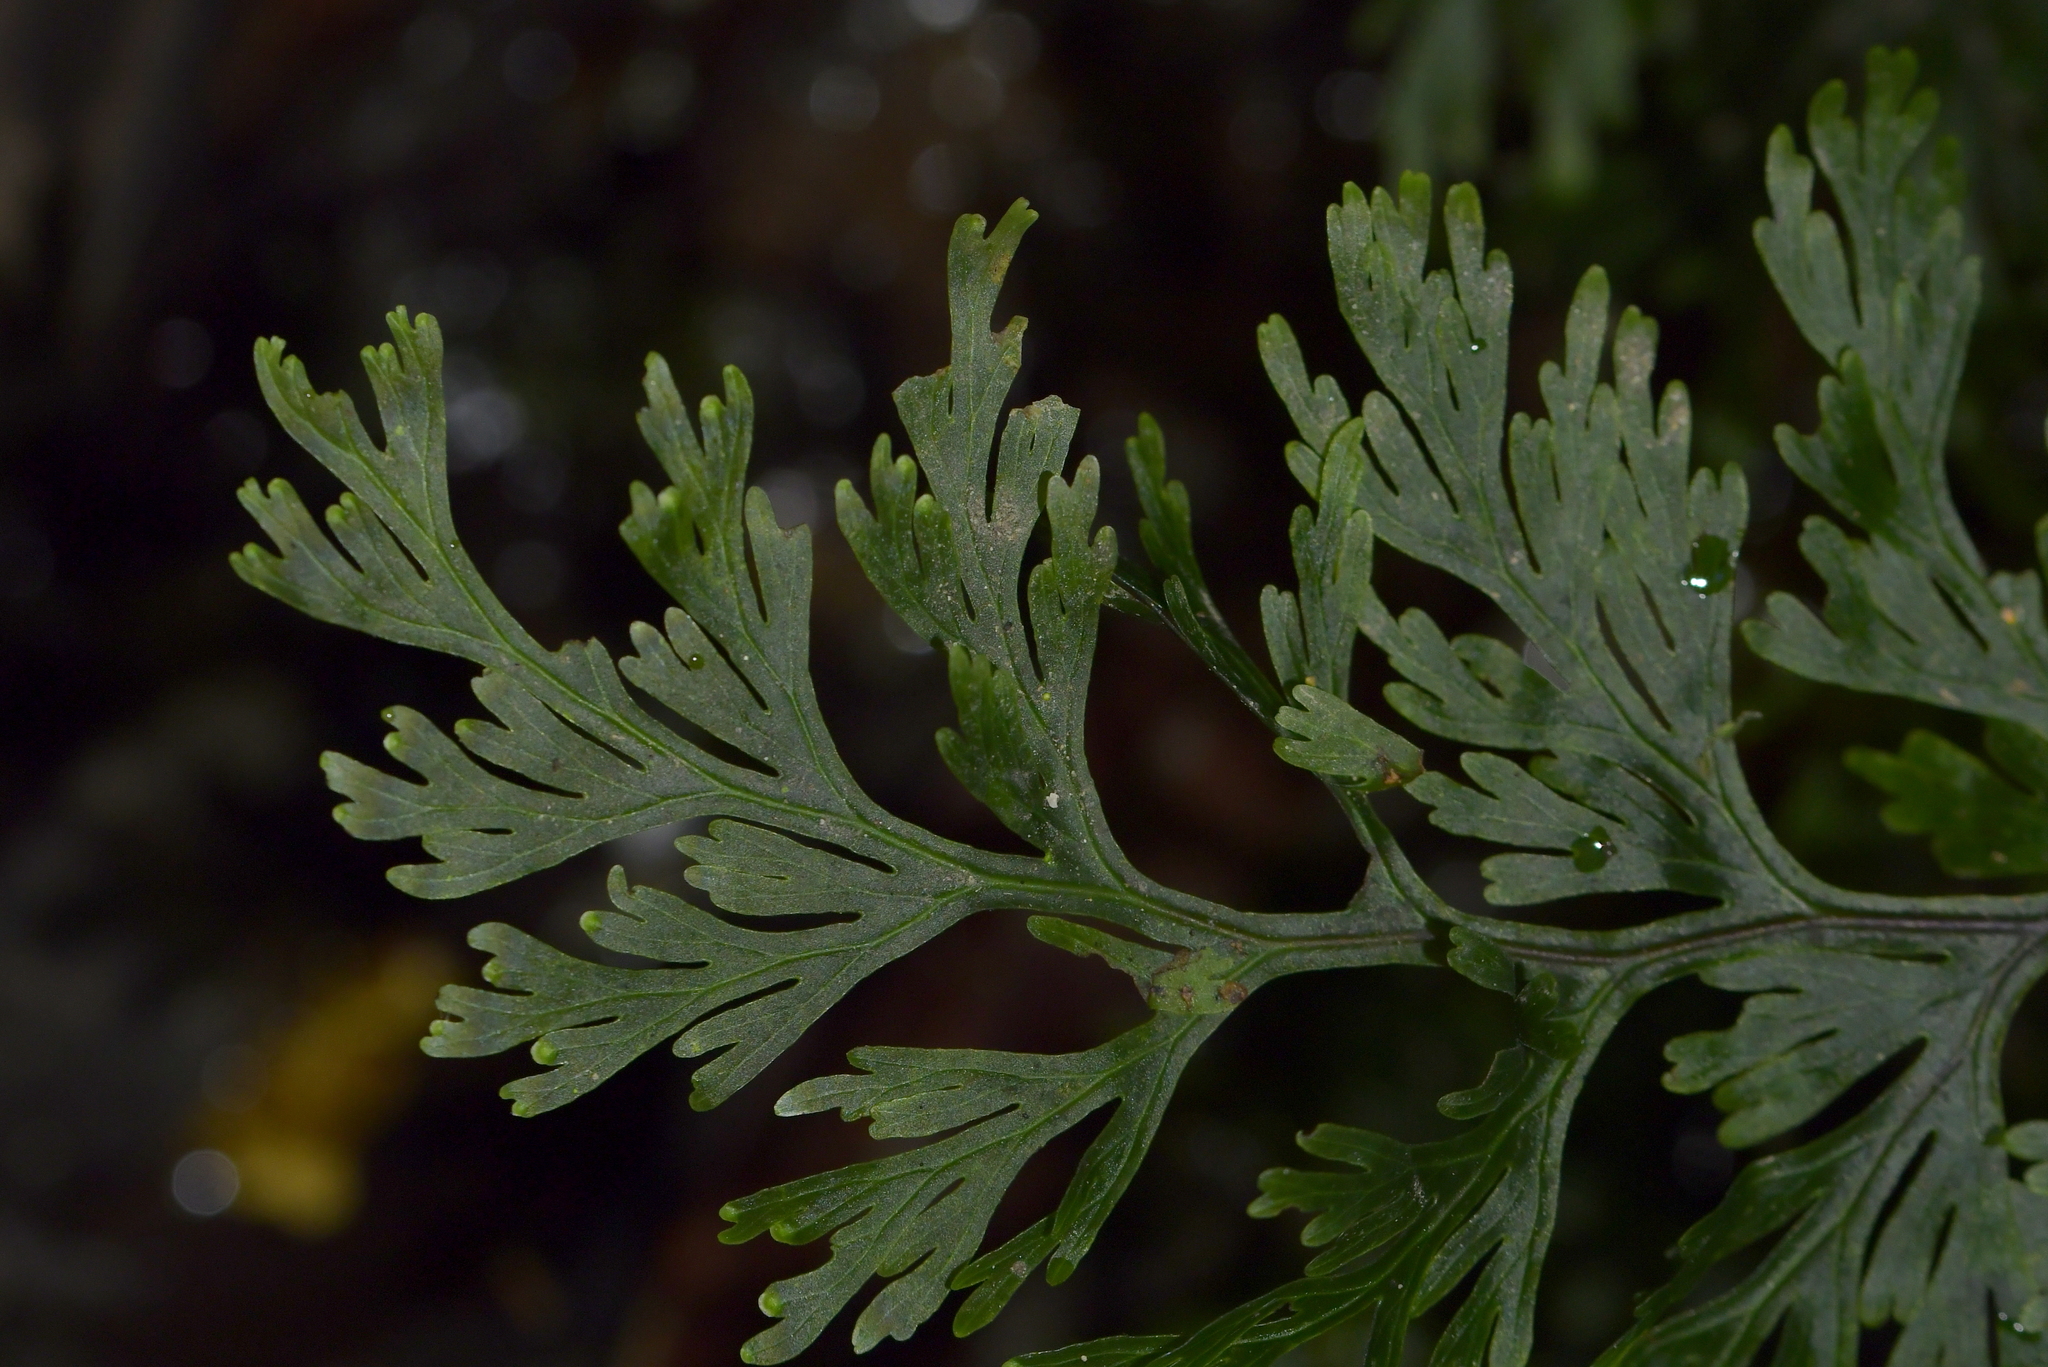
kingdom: Plantae
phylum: Tracheophyta
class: Polypodiopsida
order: Hymenophyllales
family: Hymenophyllaceae
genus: Hymenophyllum
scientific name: Hymenophyllum dilatatum
